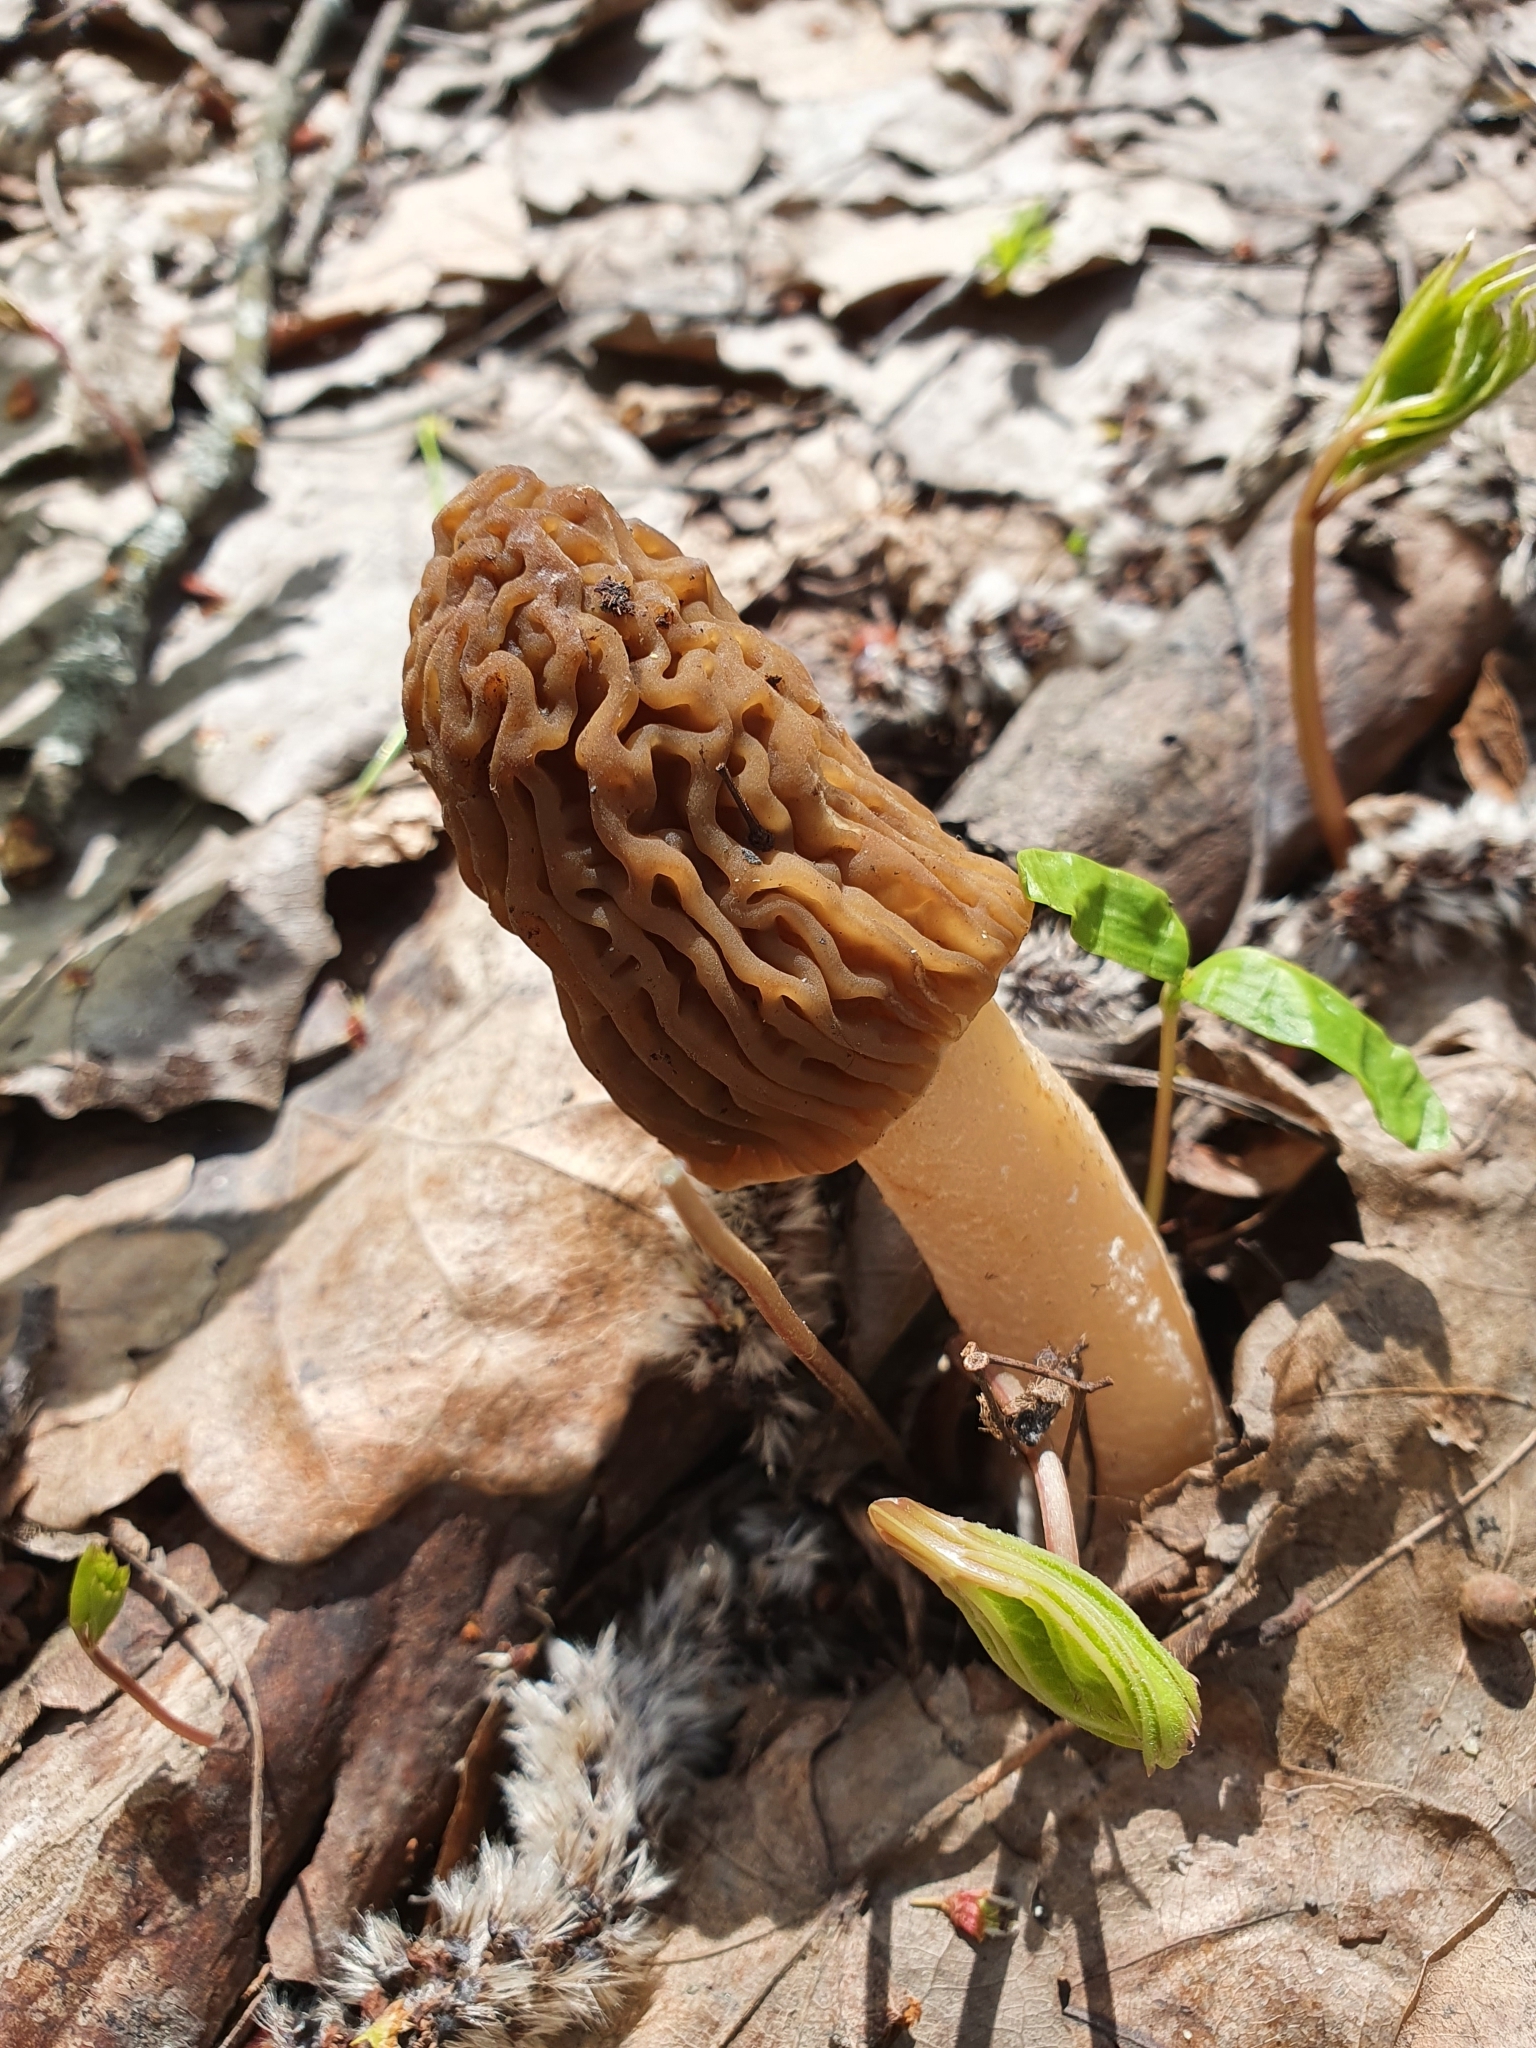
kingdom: Fungi
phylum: Ascomycota
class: Pezizomycetes
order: Pezizales
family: Morchellaceae
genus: Verpa
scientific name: Verpa bohemica
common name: Wrinkled thimble morel
